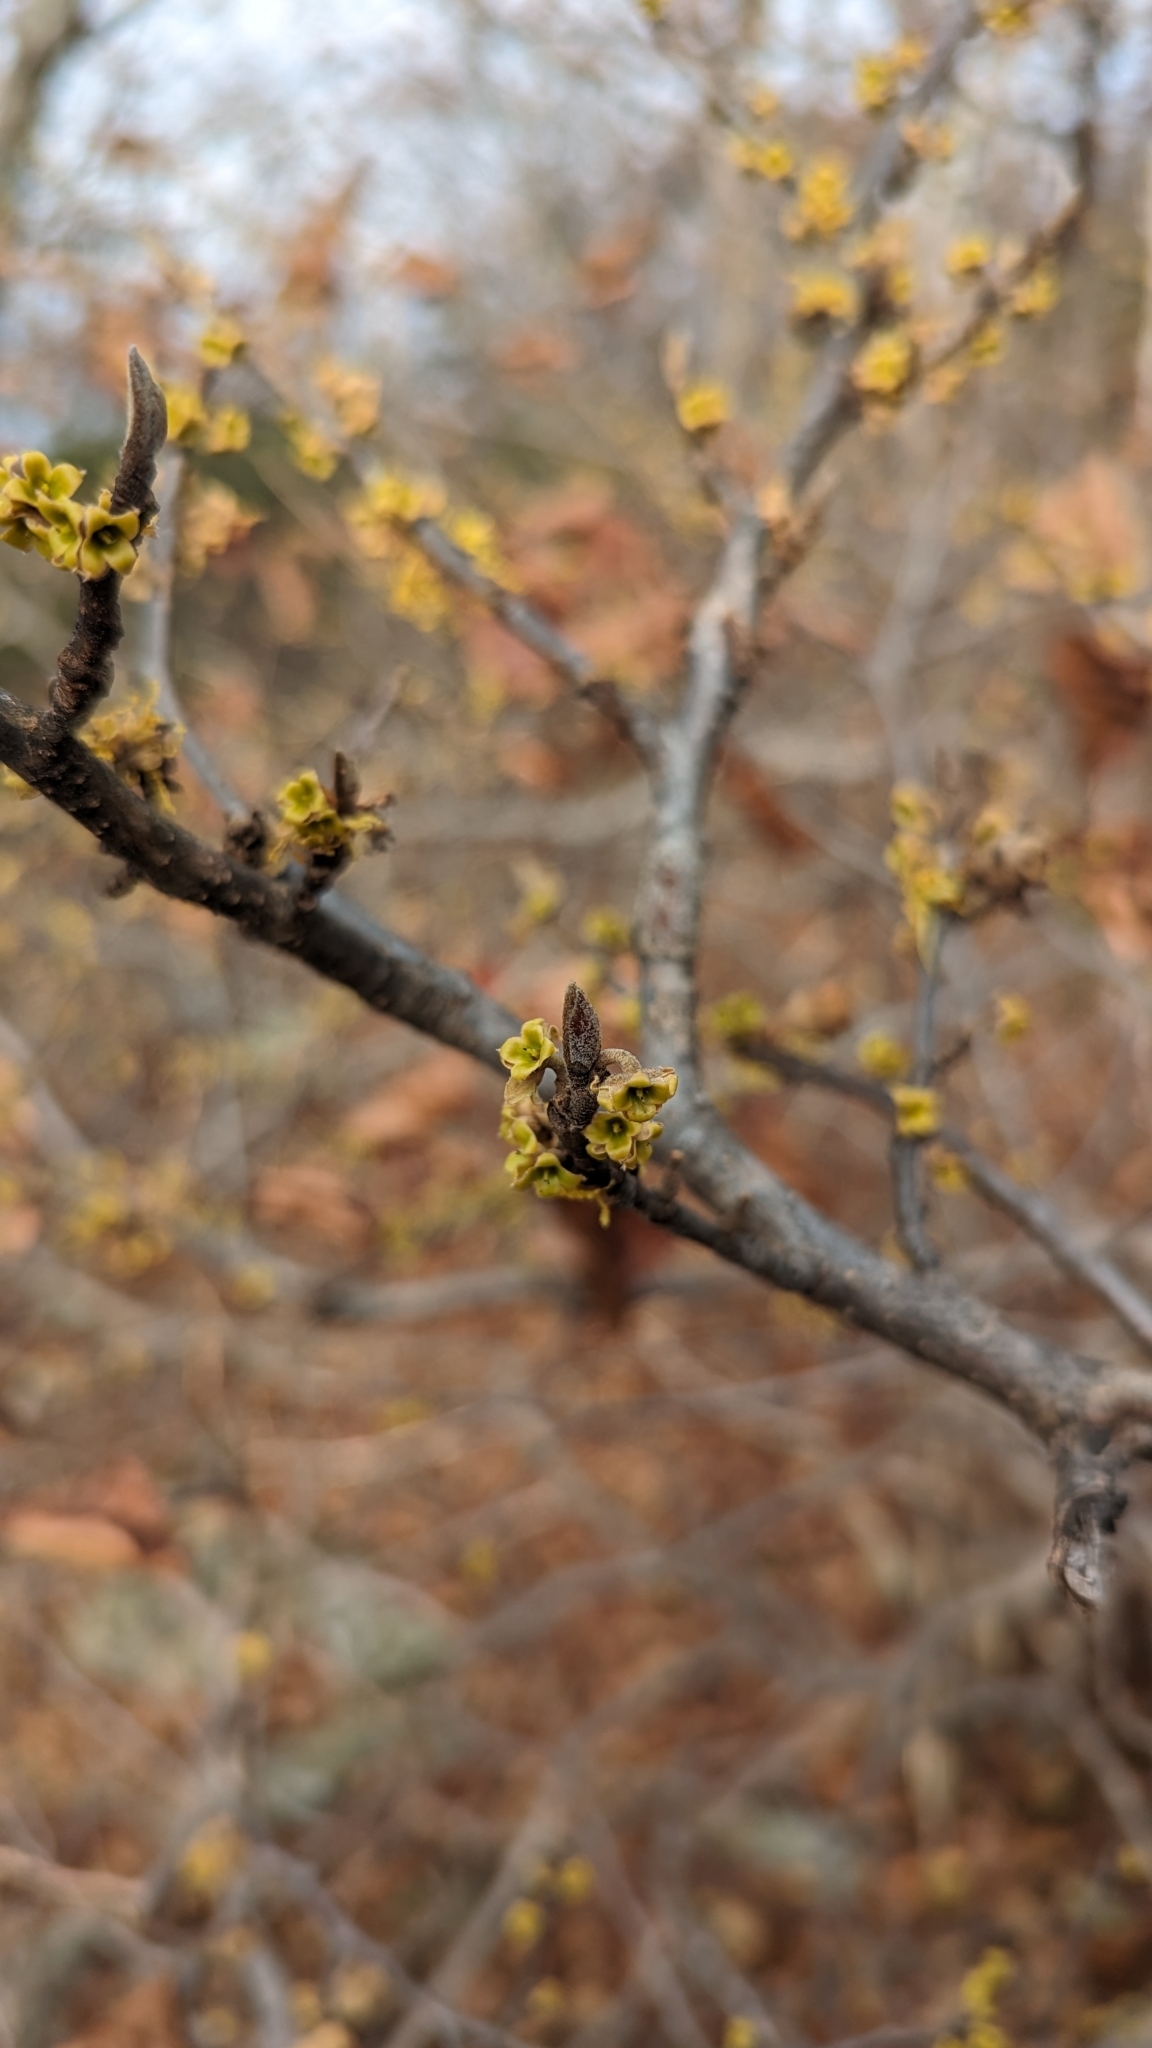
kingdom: Plantae
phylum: Tracheophyta
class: Magnoliopsida
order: Saxifragales
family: Hamamelidaceae
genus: Hamamelis
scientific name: Hamamelis virginiana
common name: Witch-hazel
